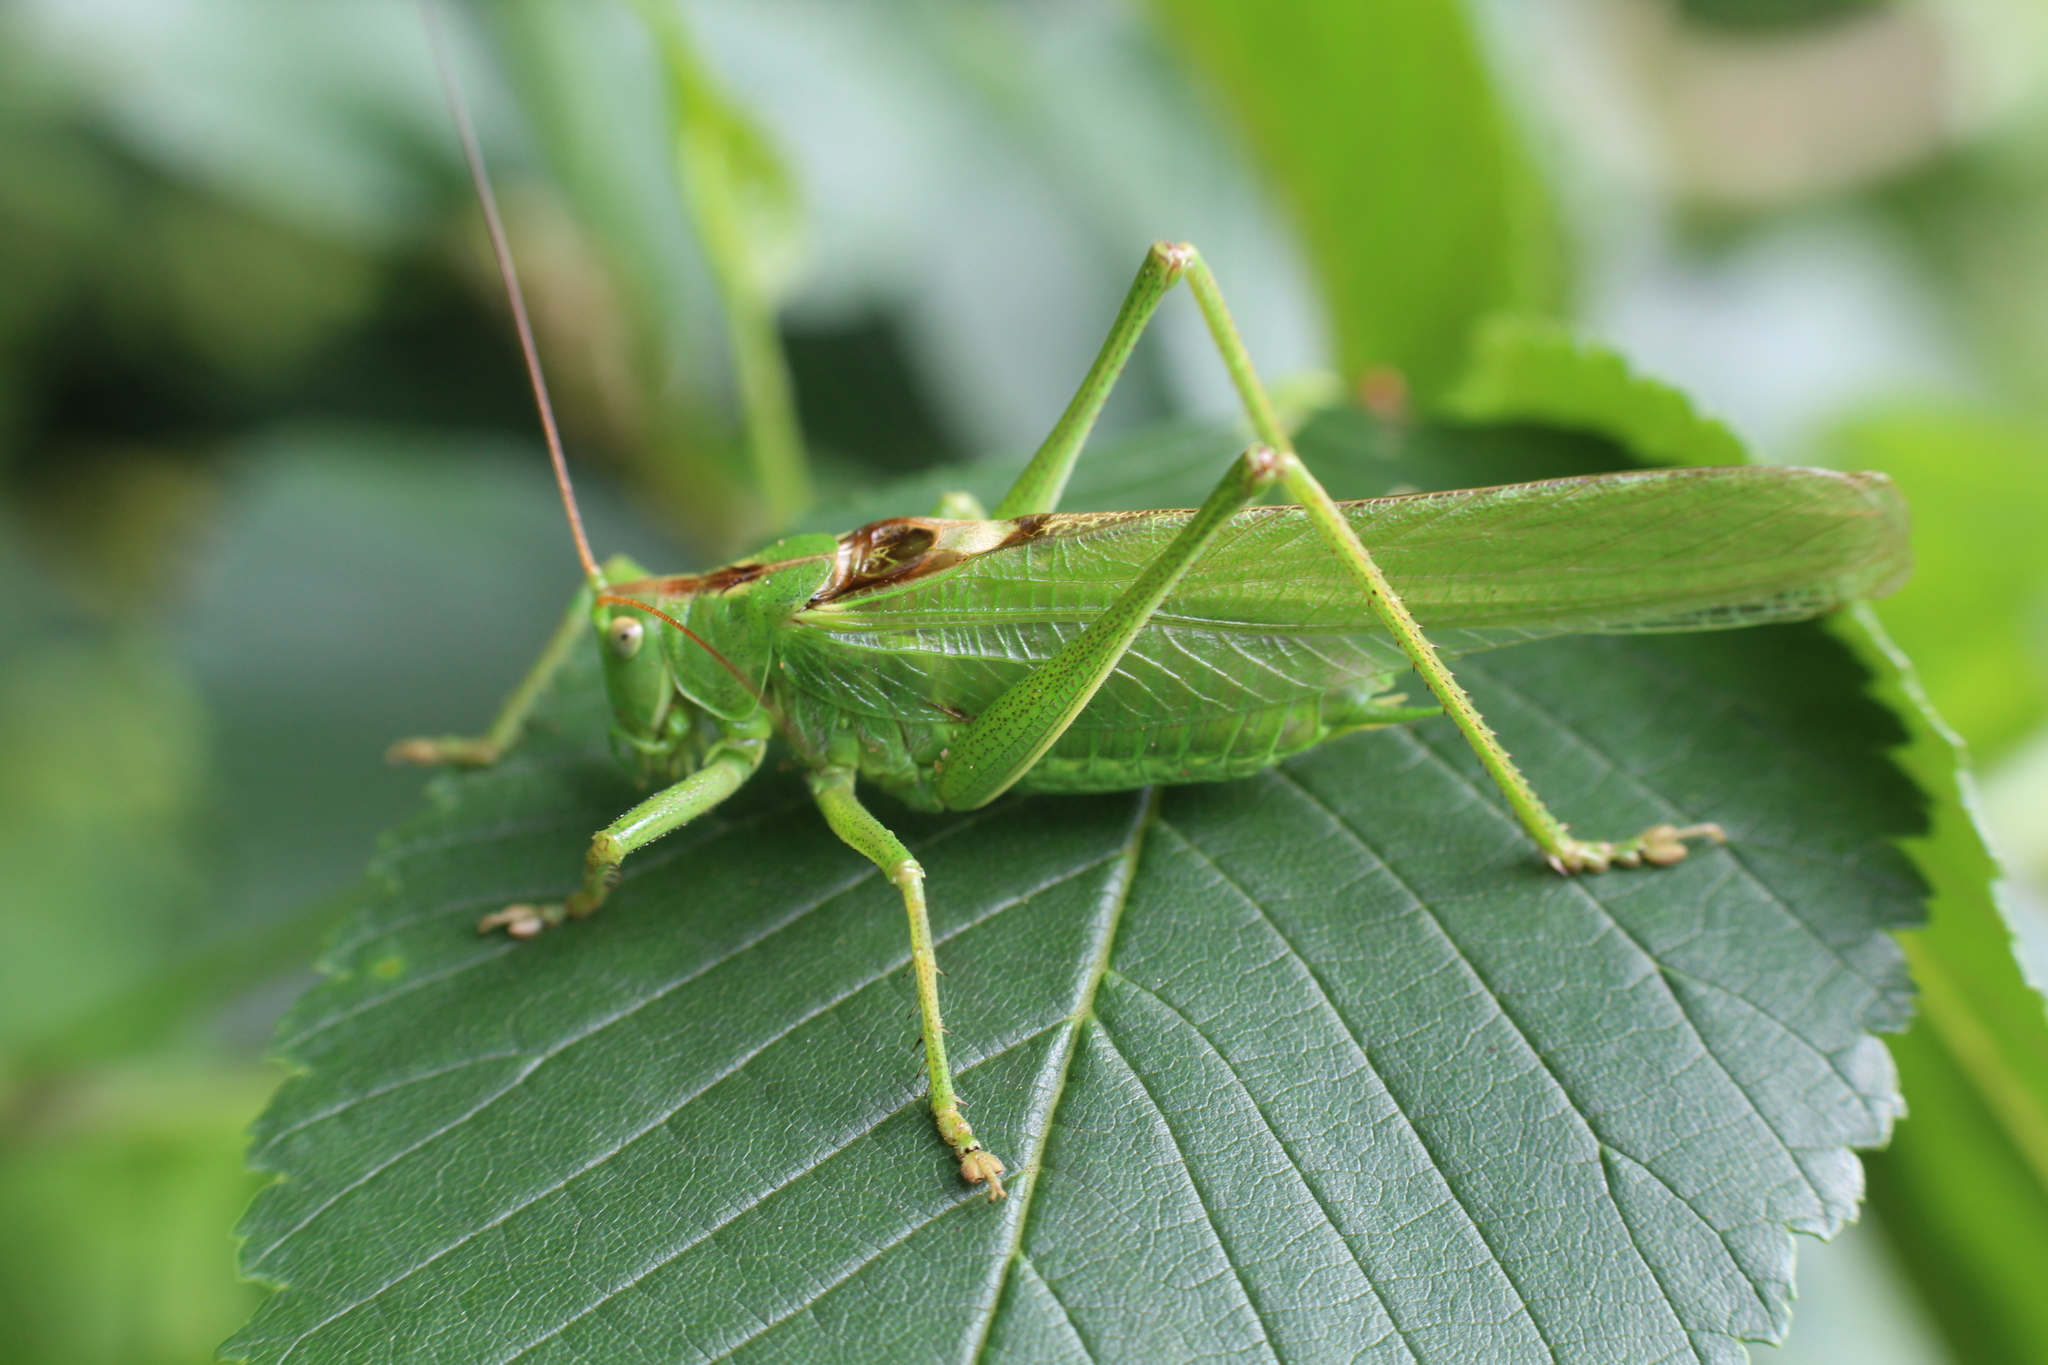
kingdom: Animalia
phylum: Arthropoda
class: Insecta
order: Orthoptera
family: Tettigoniidae
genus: Tettigonia
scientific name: Tettigonia viridissima
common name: Great green bush-cricket
